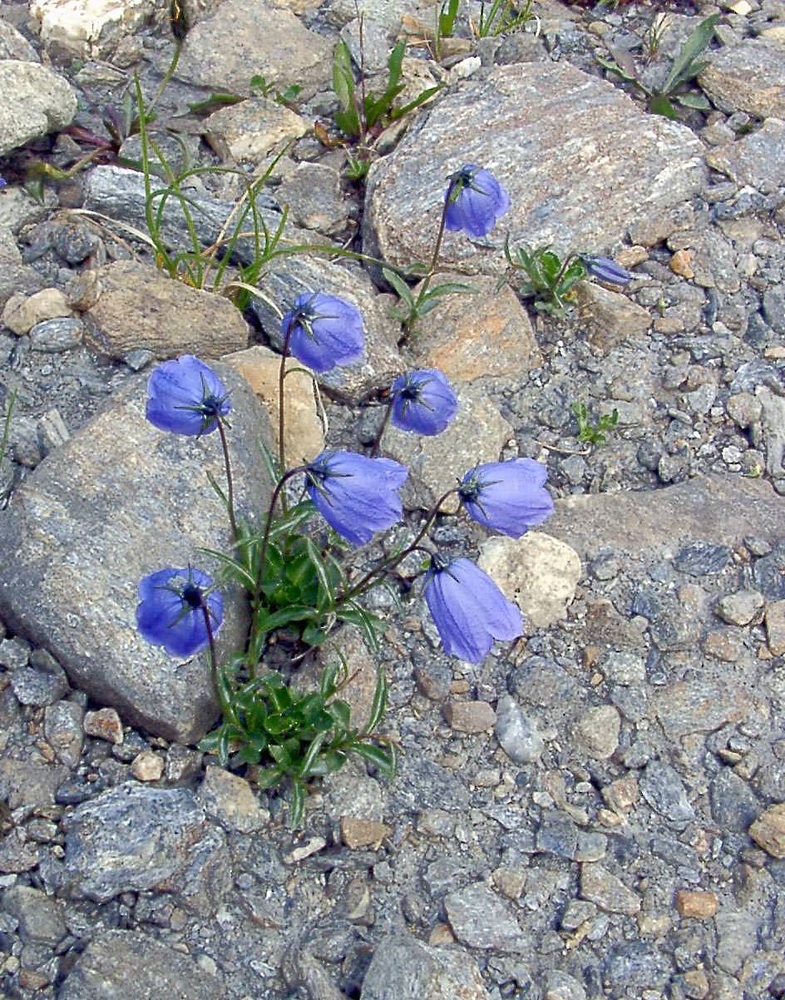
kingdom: Plantae
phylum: Tracheophyta
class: Magnoliopsida
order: Asterales
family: Campanulaceae
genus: Campanula
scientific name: Campanula cochleariifolia
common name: Fairies'-thimbles
